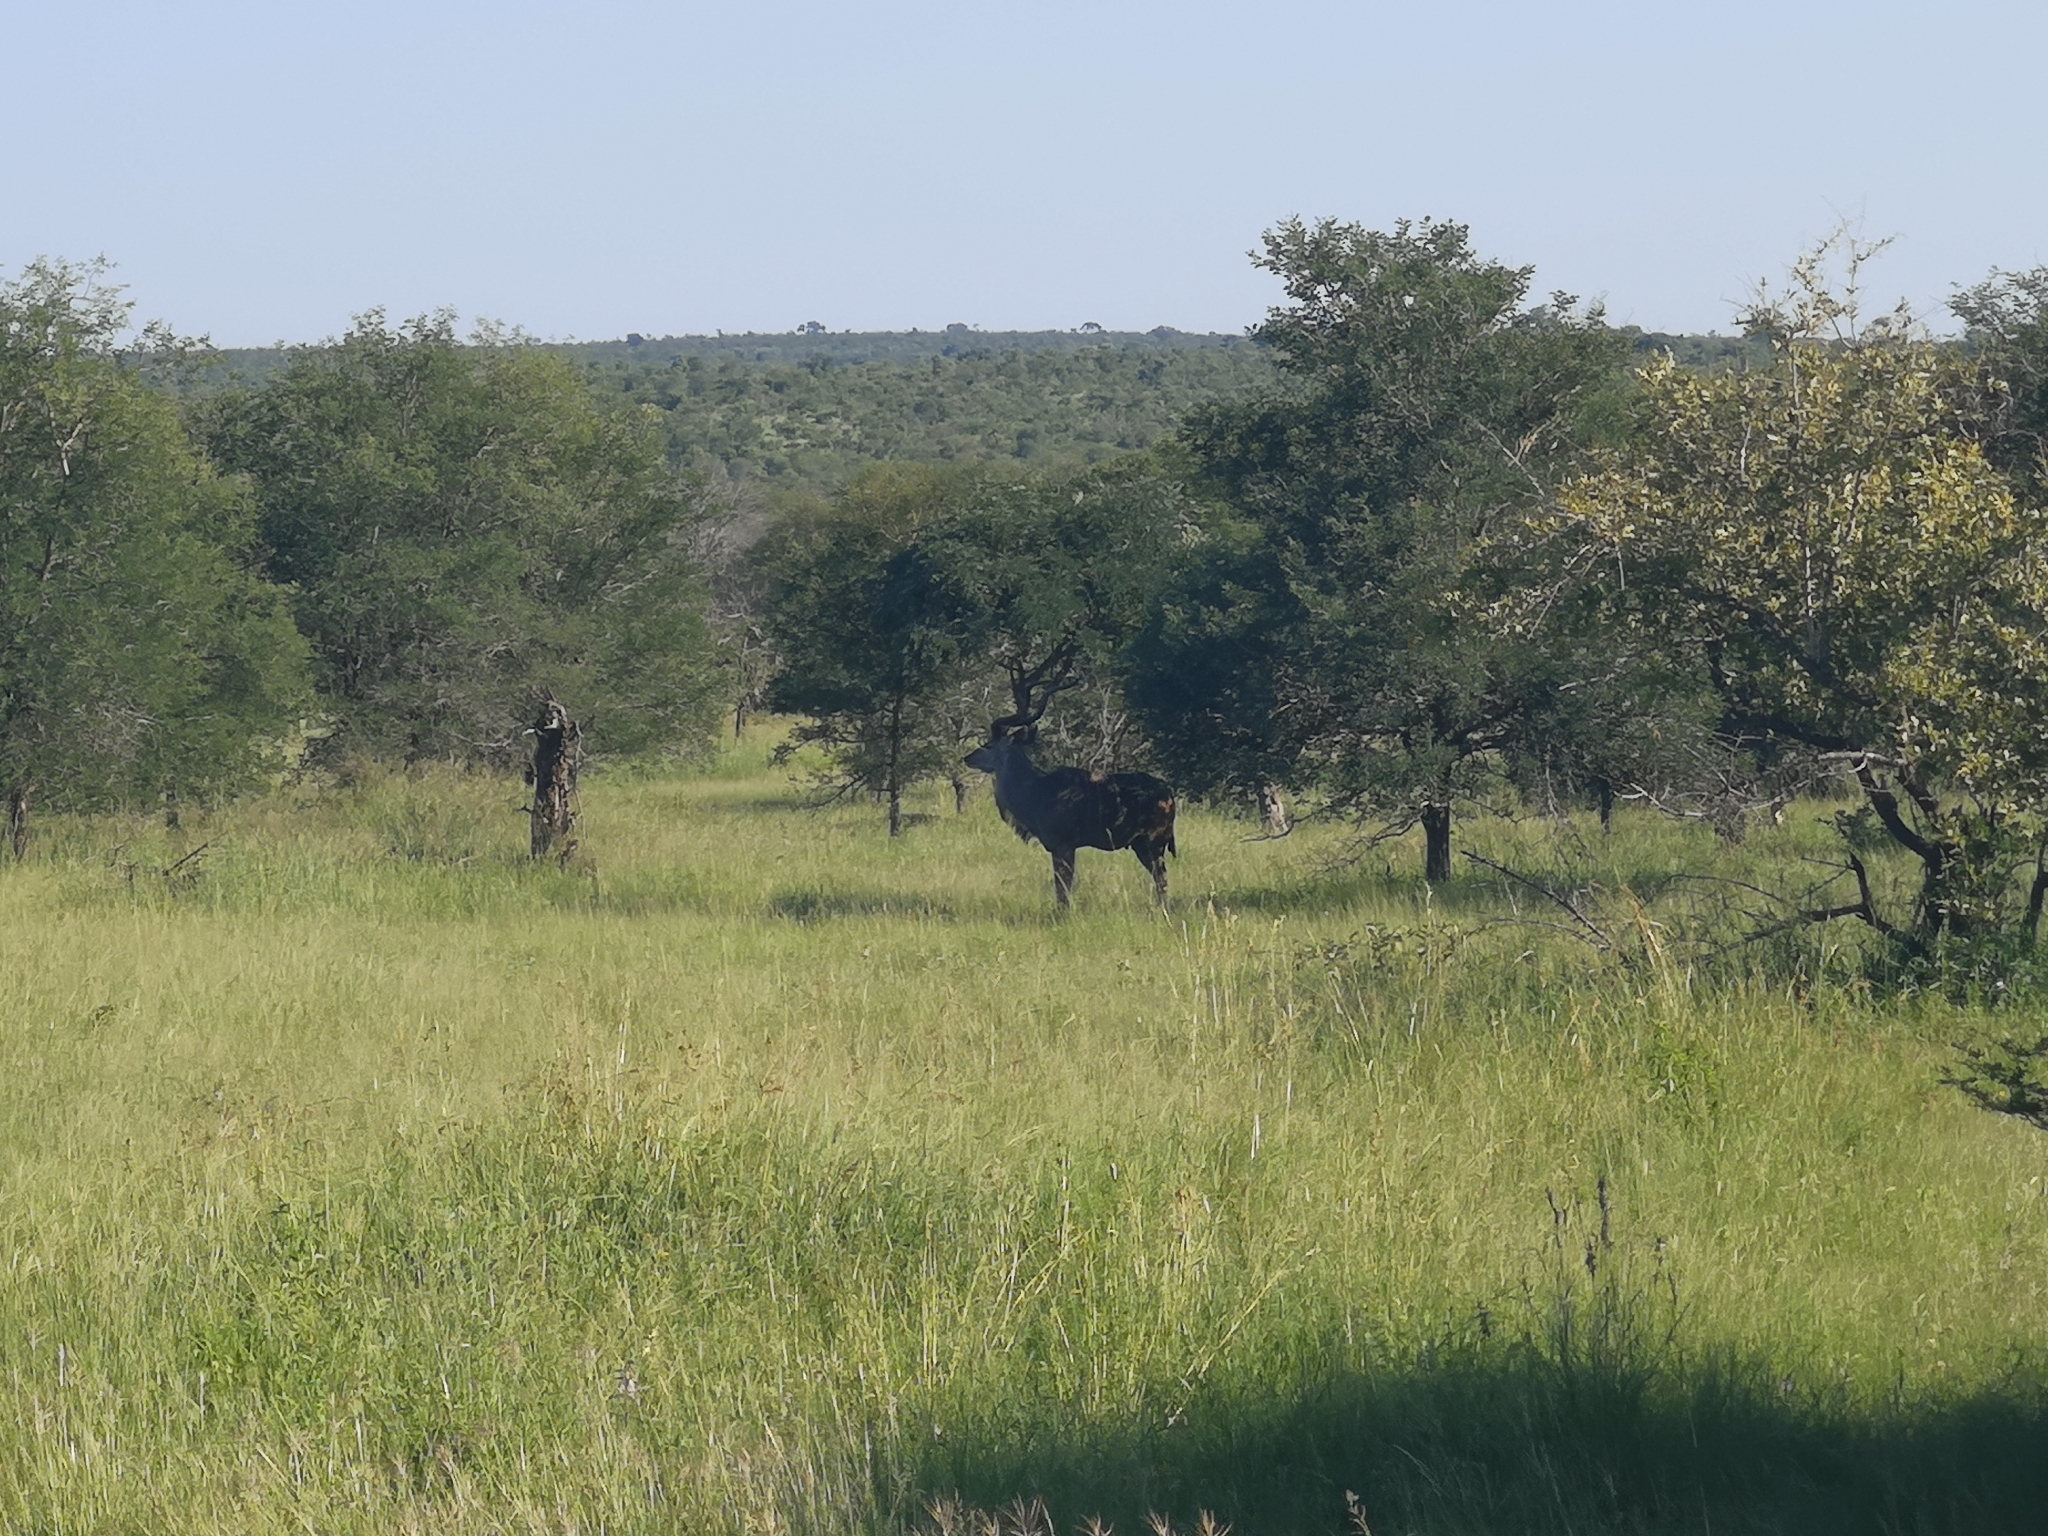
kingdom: Animalia
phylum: Chordata
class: Mammalia
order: Artiodactyla
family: Bovidae
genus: Tragelaphus
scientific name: Tragelaphus strepsiceros
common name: Greater kudu
